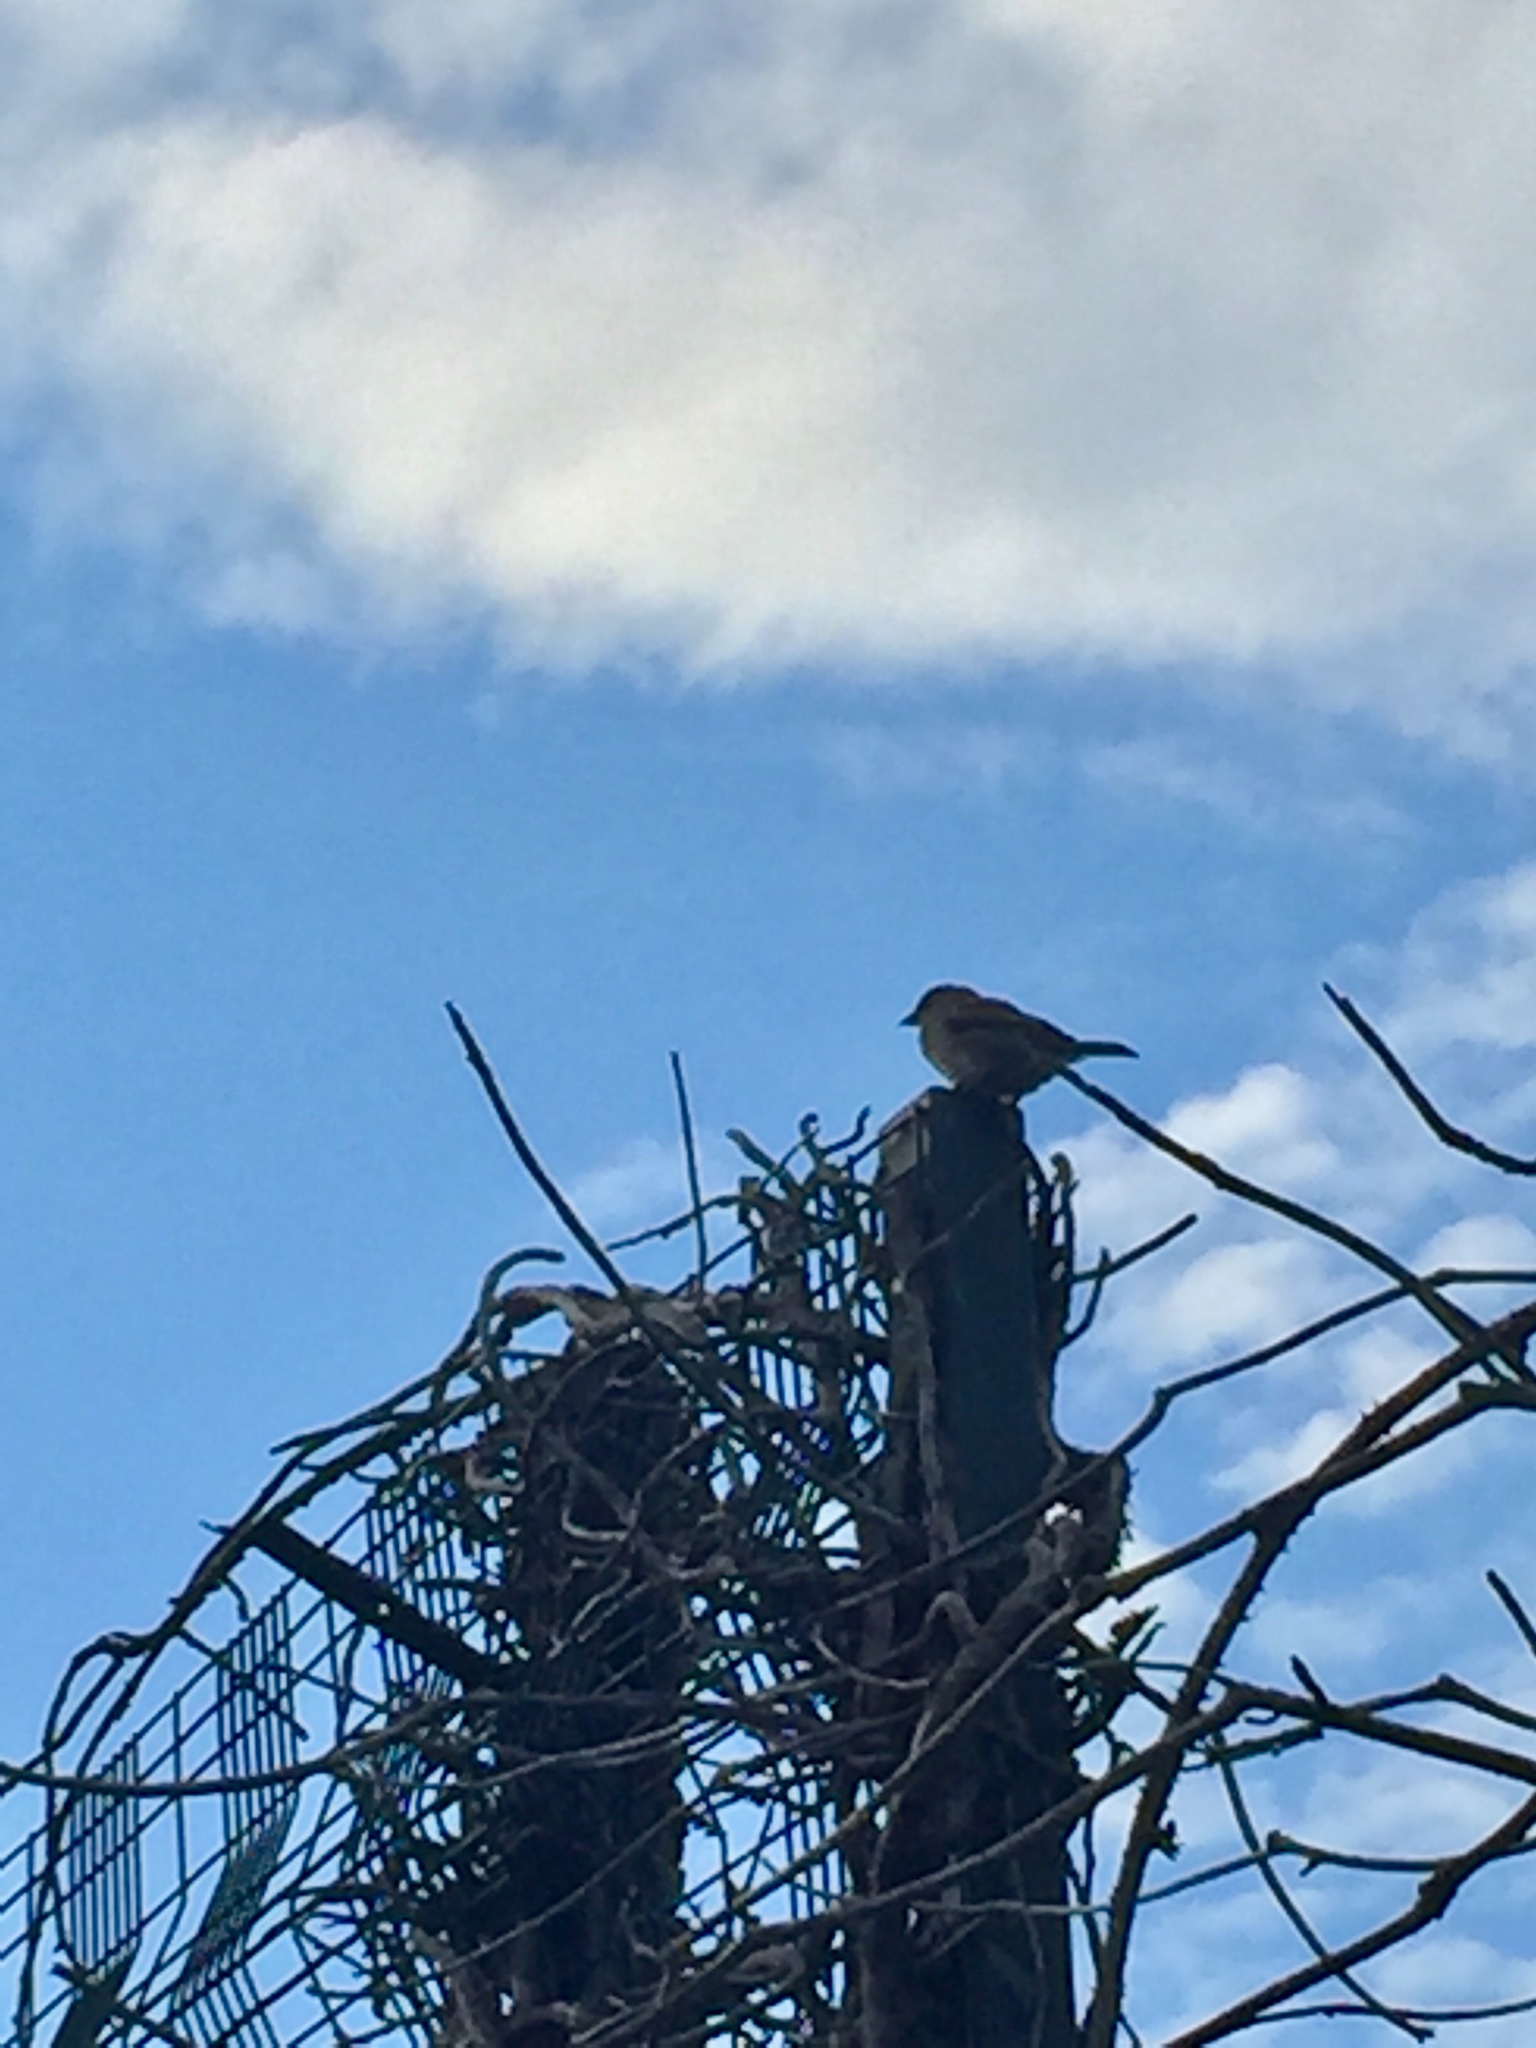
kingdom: Animalia
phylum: Chordata
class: Aves
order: Passeriformes
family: Passeridae
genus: Passer
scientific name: Passer domesticus
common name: House sparrow
